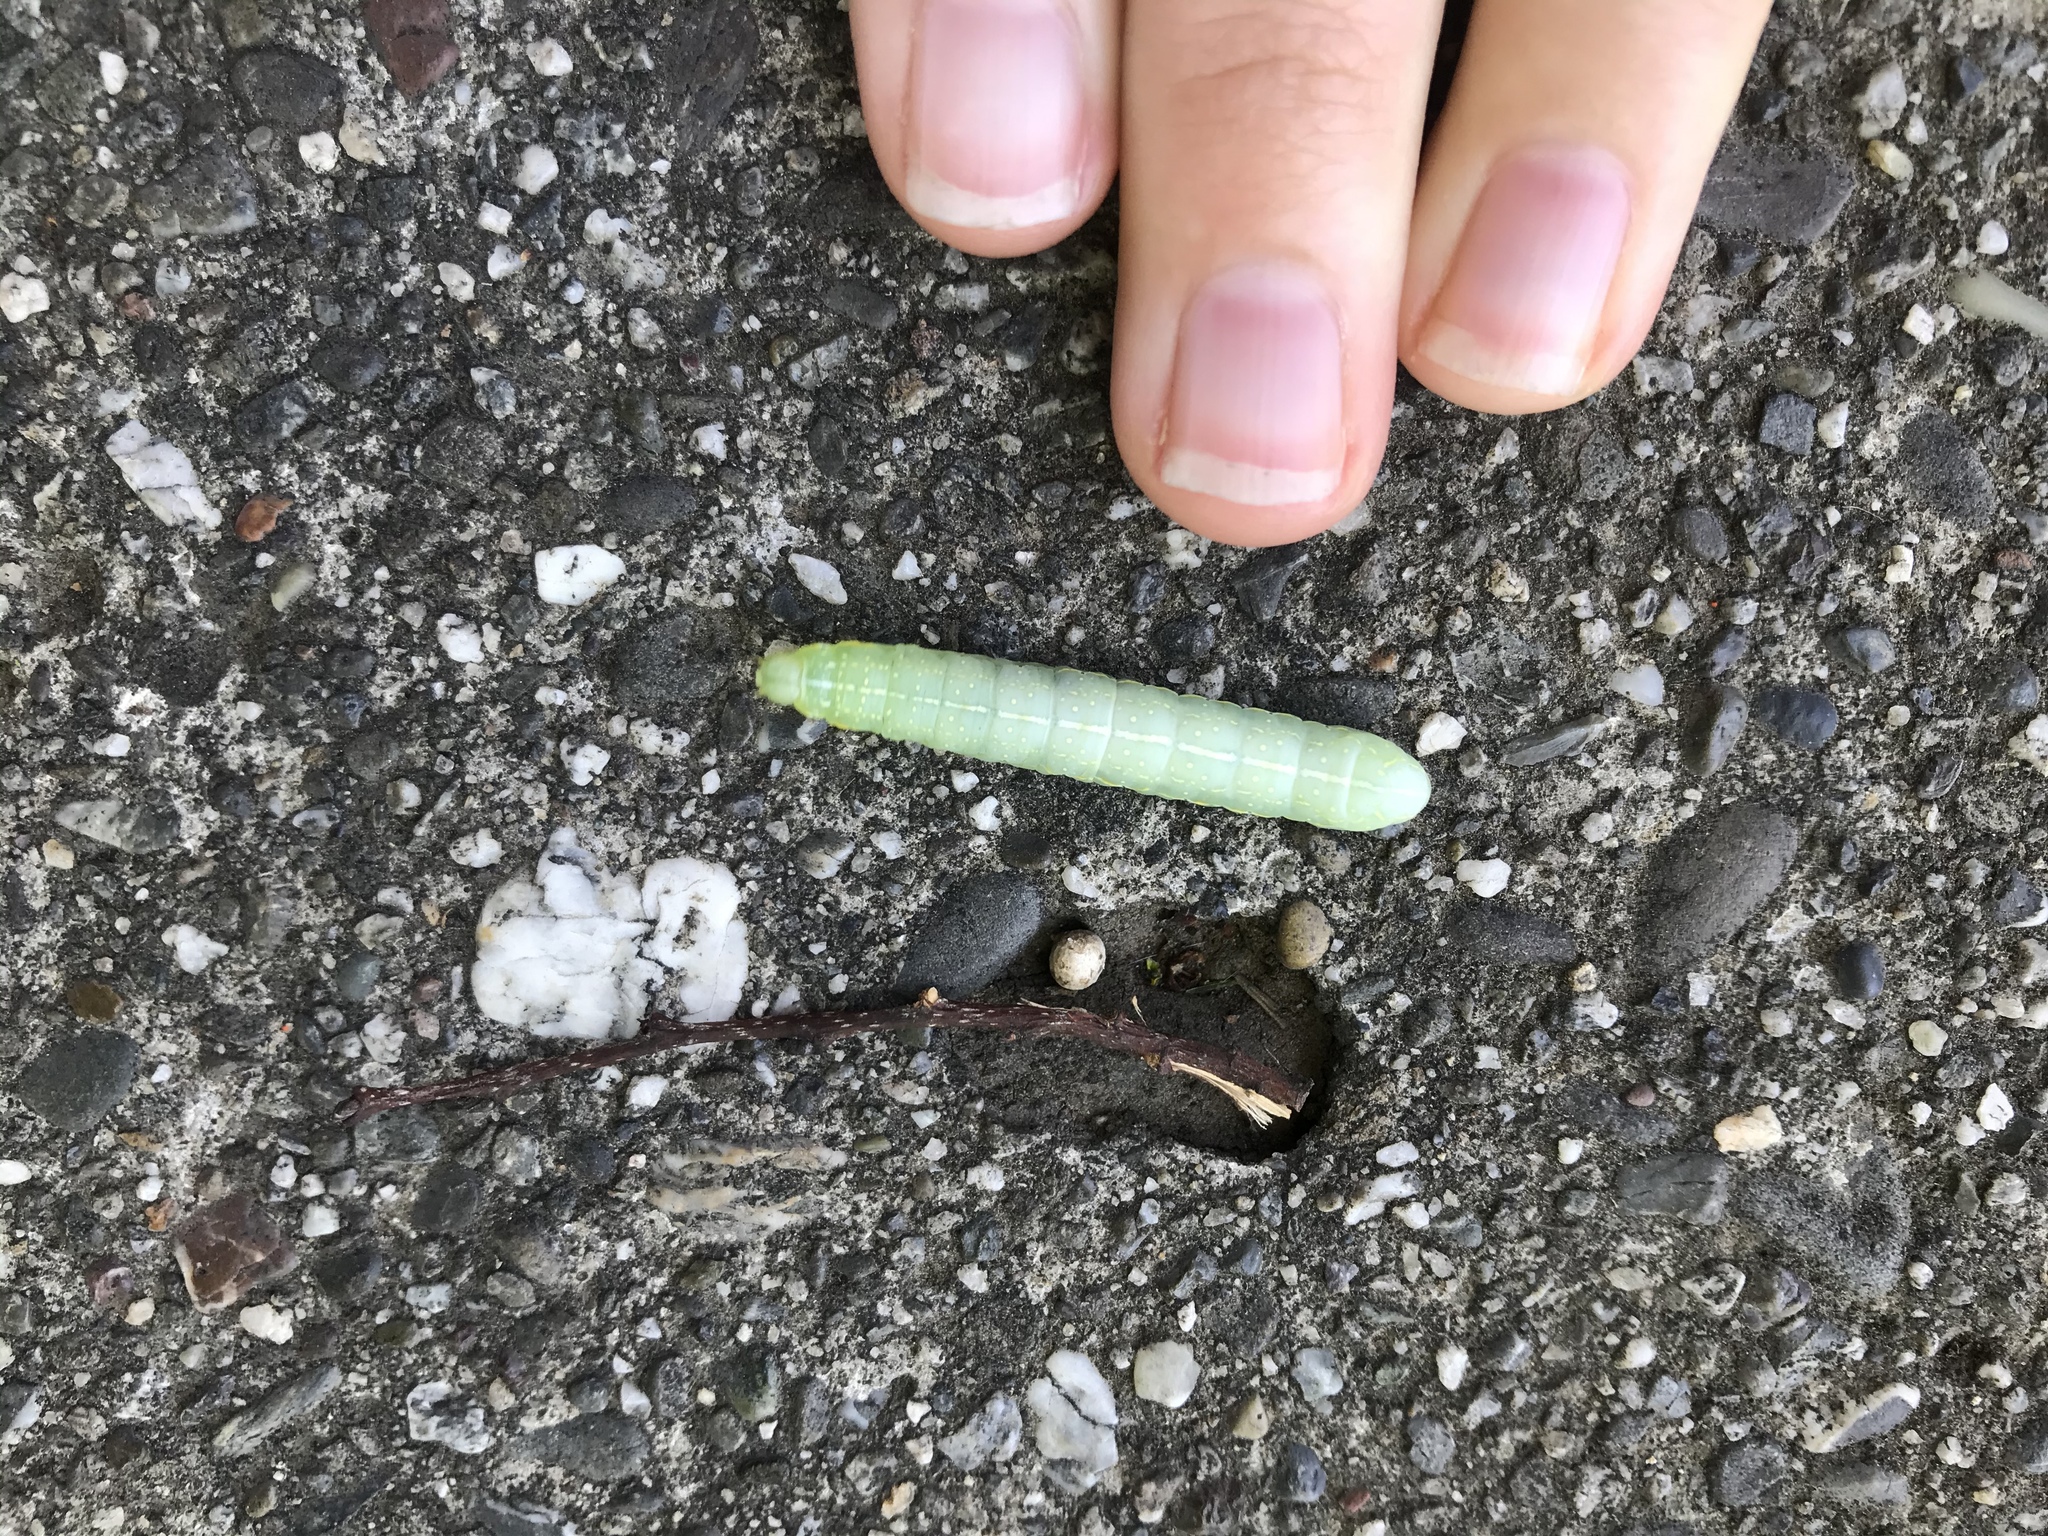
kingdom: Animalia
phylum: Arthropoda
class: Insecta
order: Lepidoptera
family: Noctuidae
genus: Amphipyra
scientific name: Amphipyra pyramidoides
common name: American copper underwing
